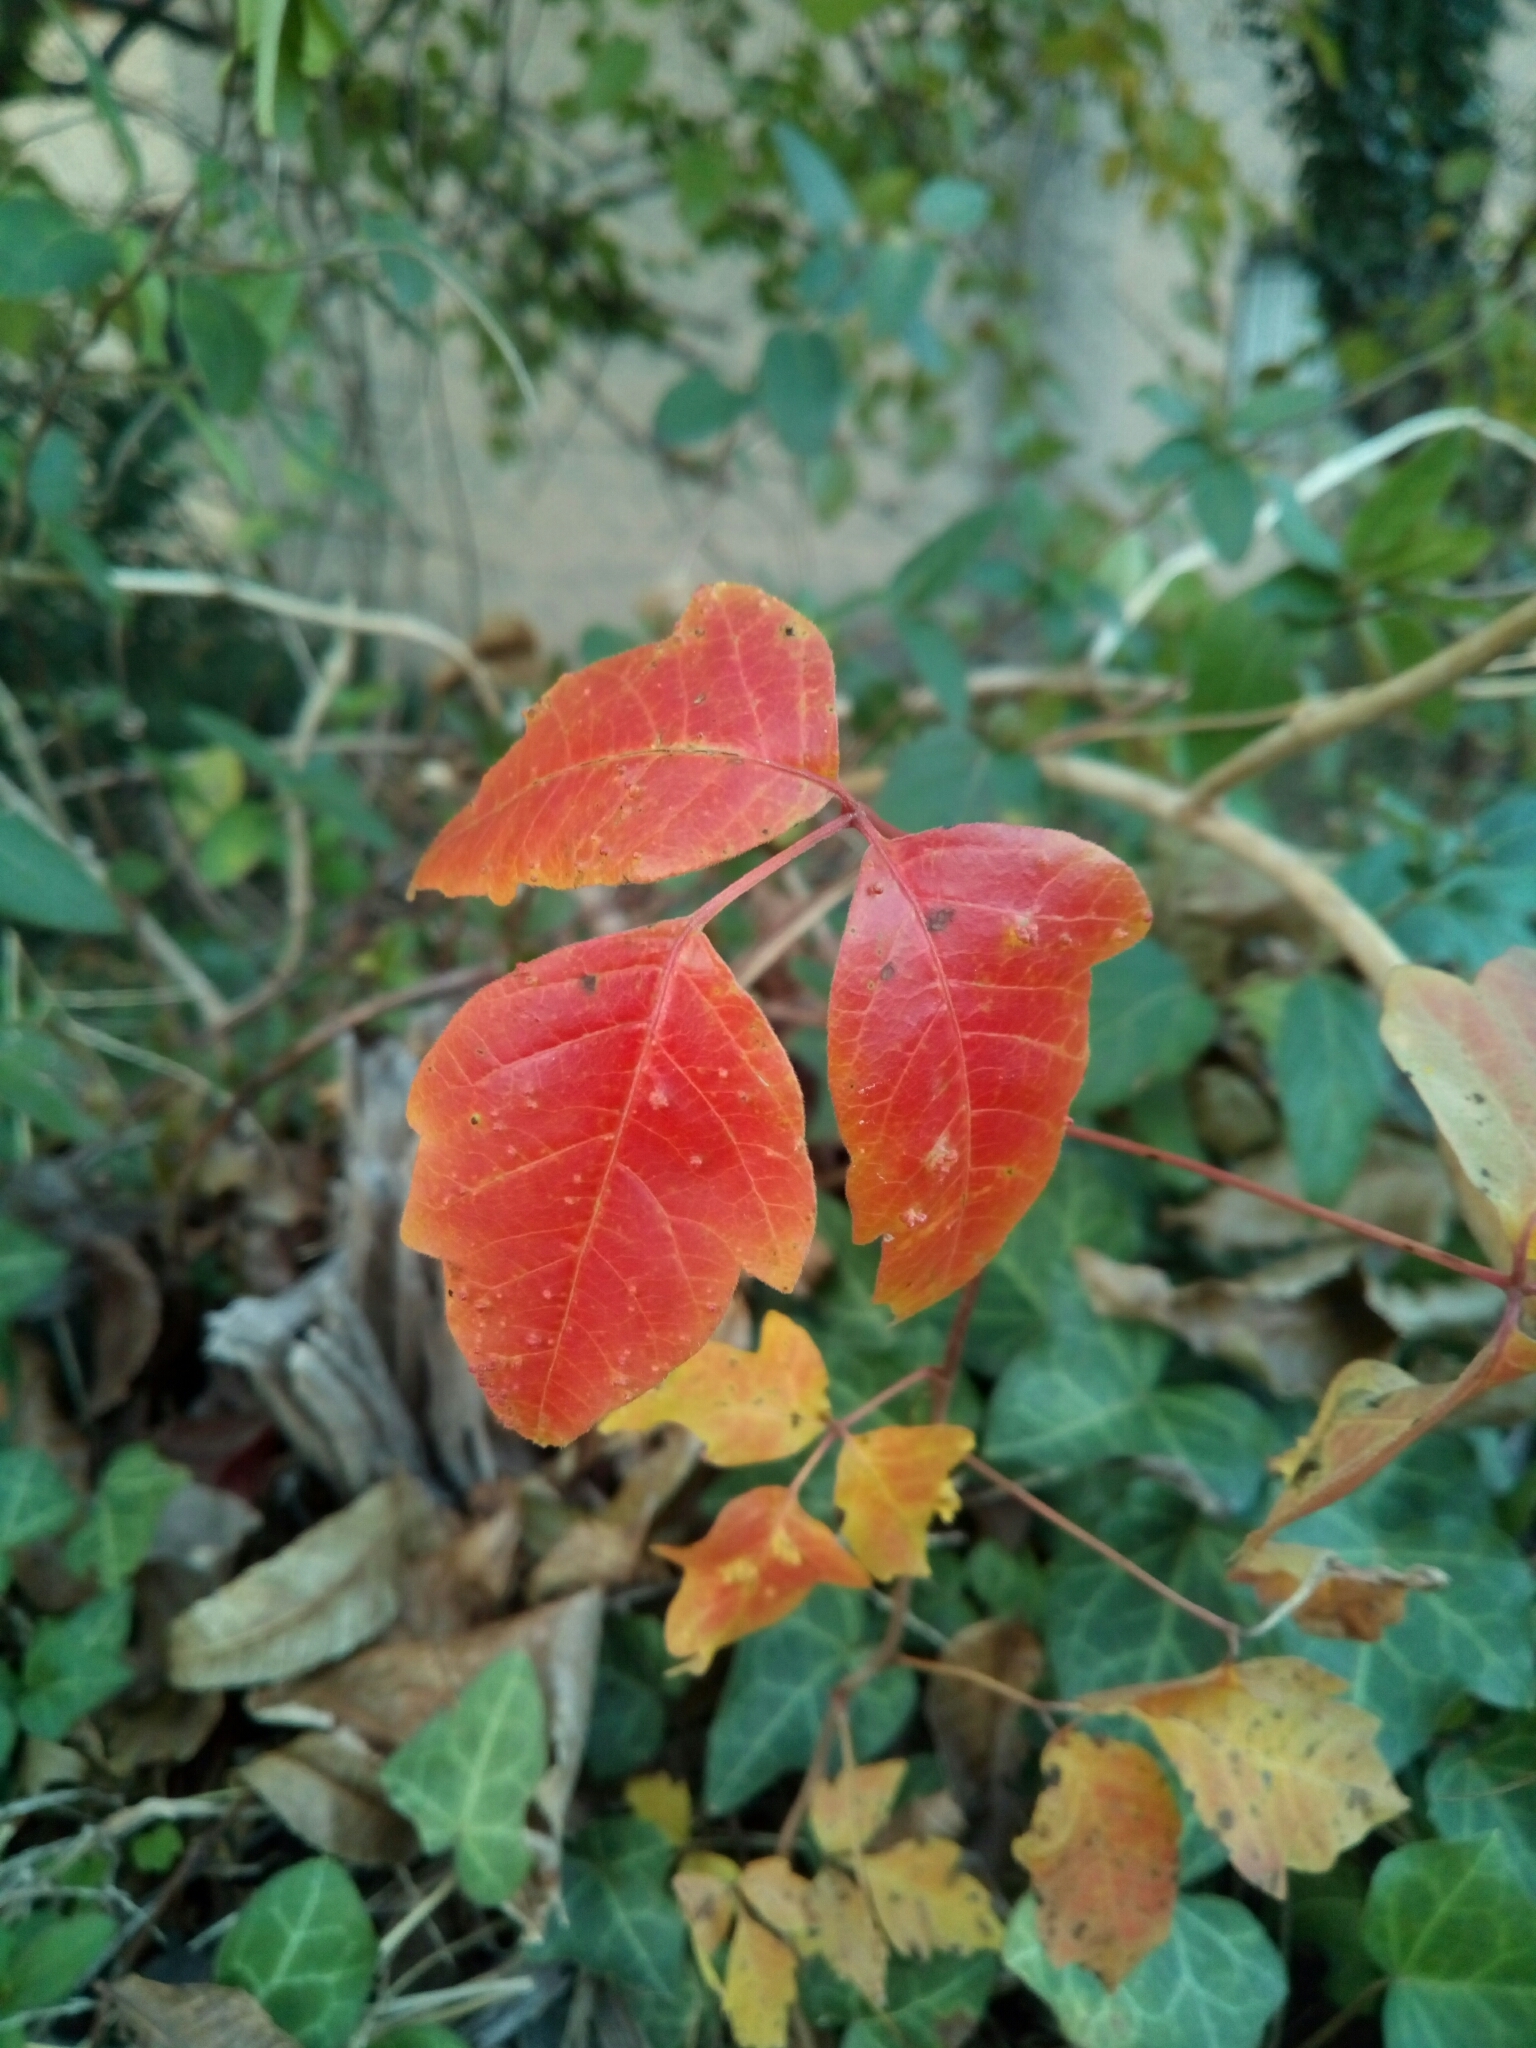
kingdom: Plantae
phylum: Tracheophyta
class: Magnoliopsida
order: Sapindales
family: Anacardiaceae
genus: Toxicodendron
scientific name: Toxicodendron radicans
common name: Poison ivy
